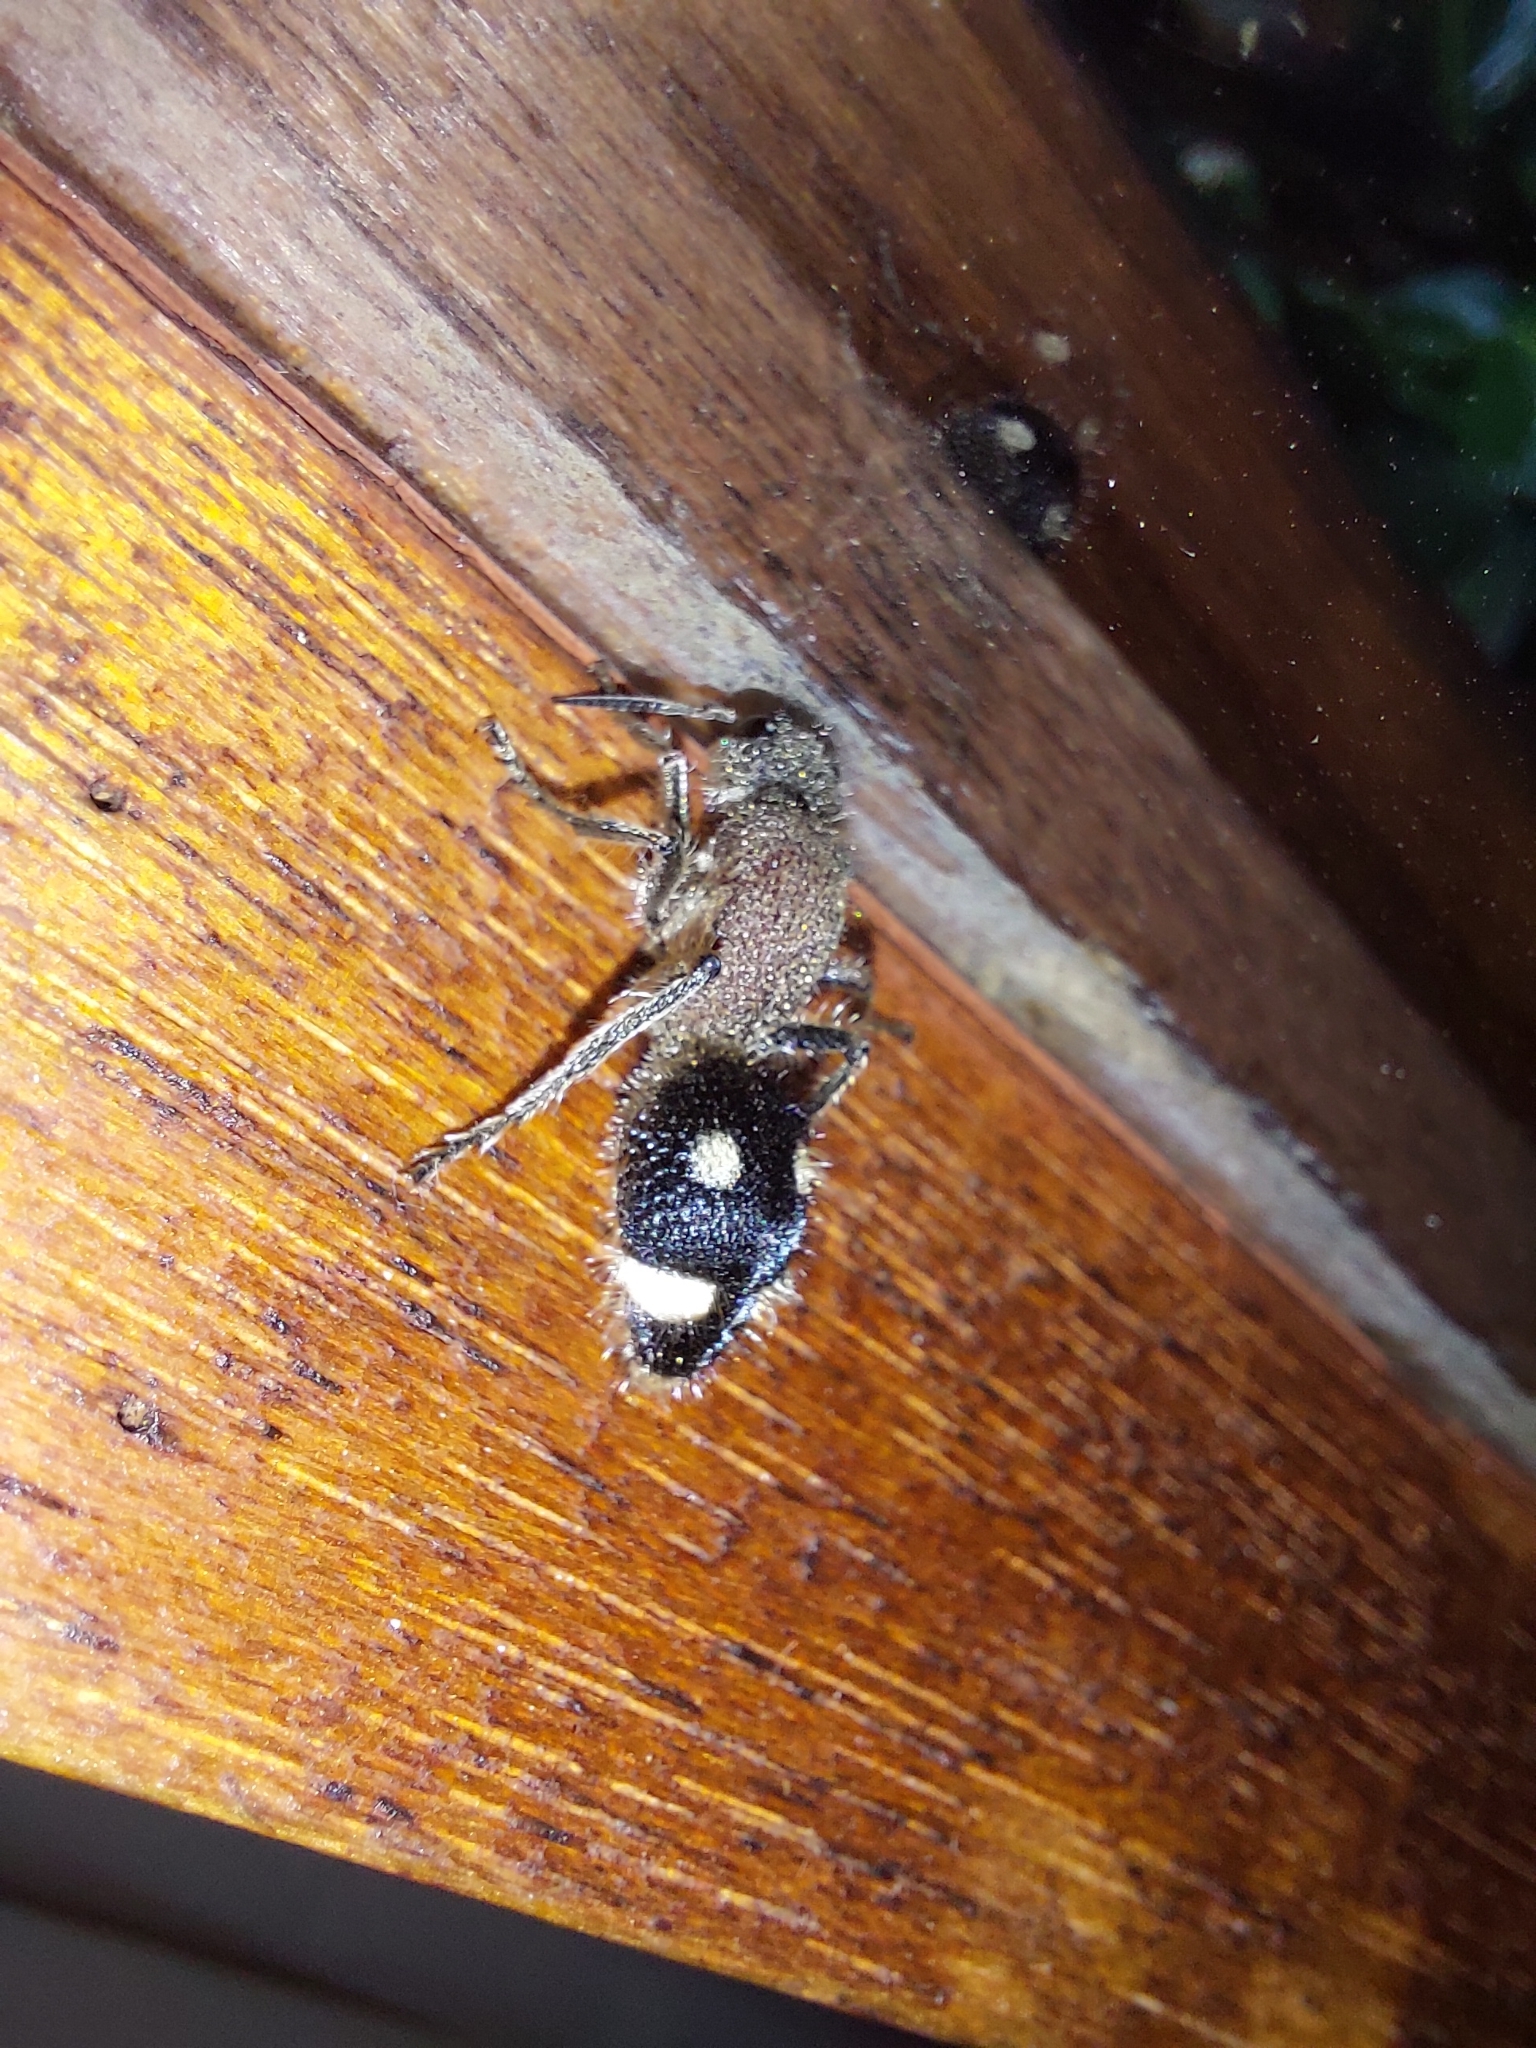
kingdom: Animalia
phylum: Arthropoda
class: Insecta
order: Hymenoptera
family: Mutillidae
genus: Dolichomutilla
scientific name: Dolichomutilla
